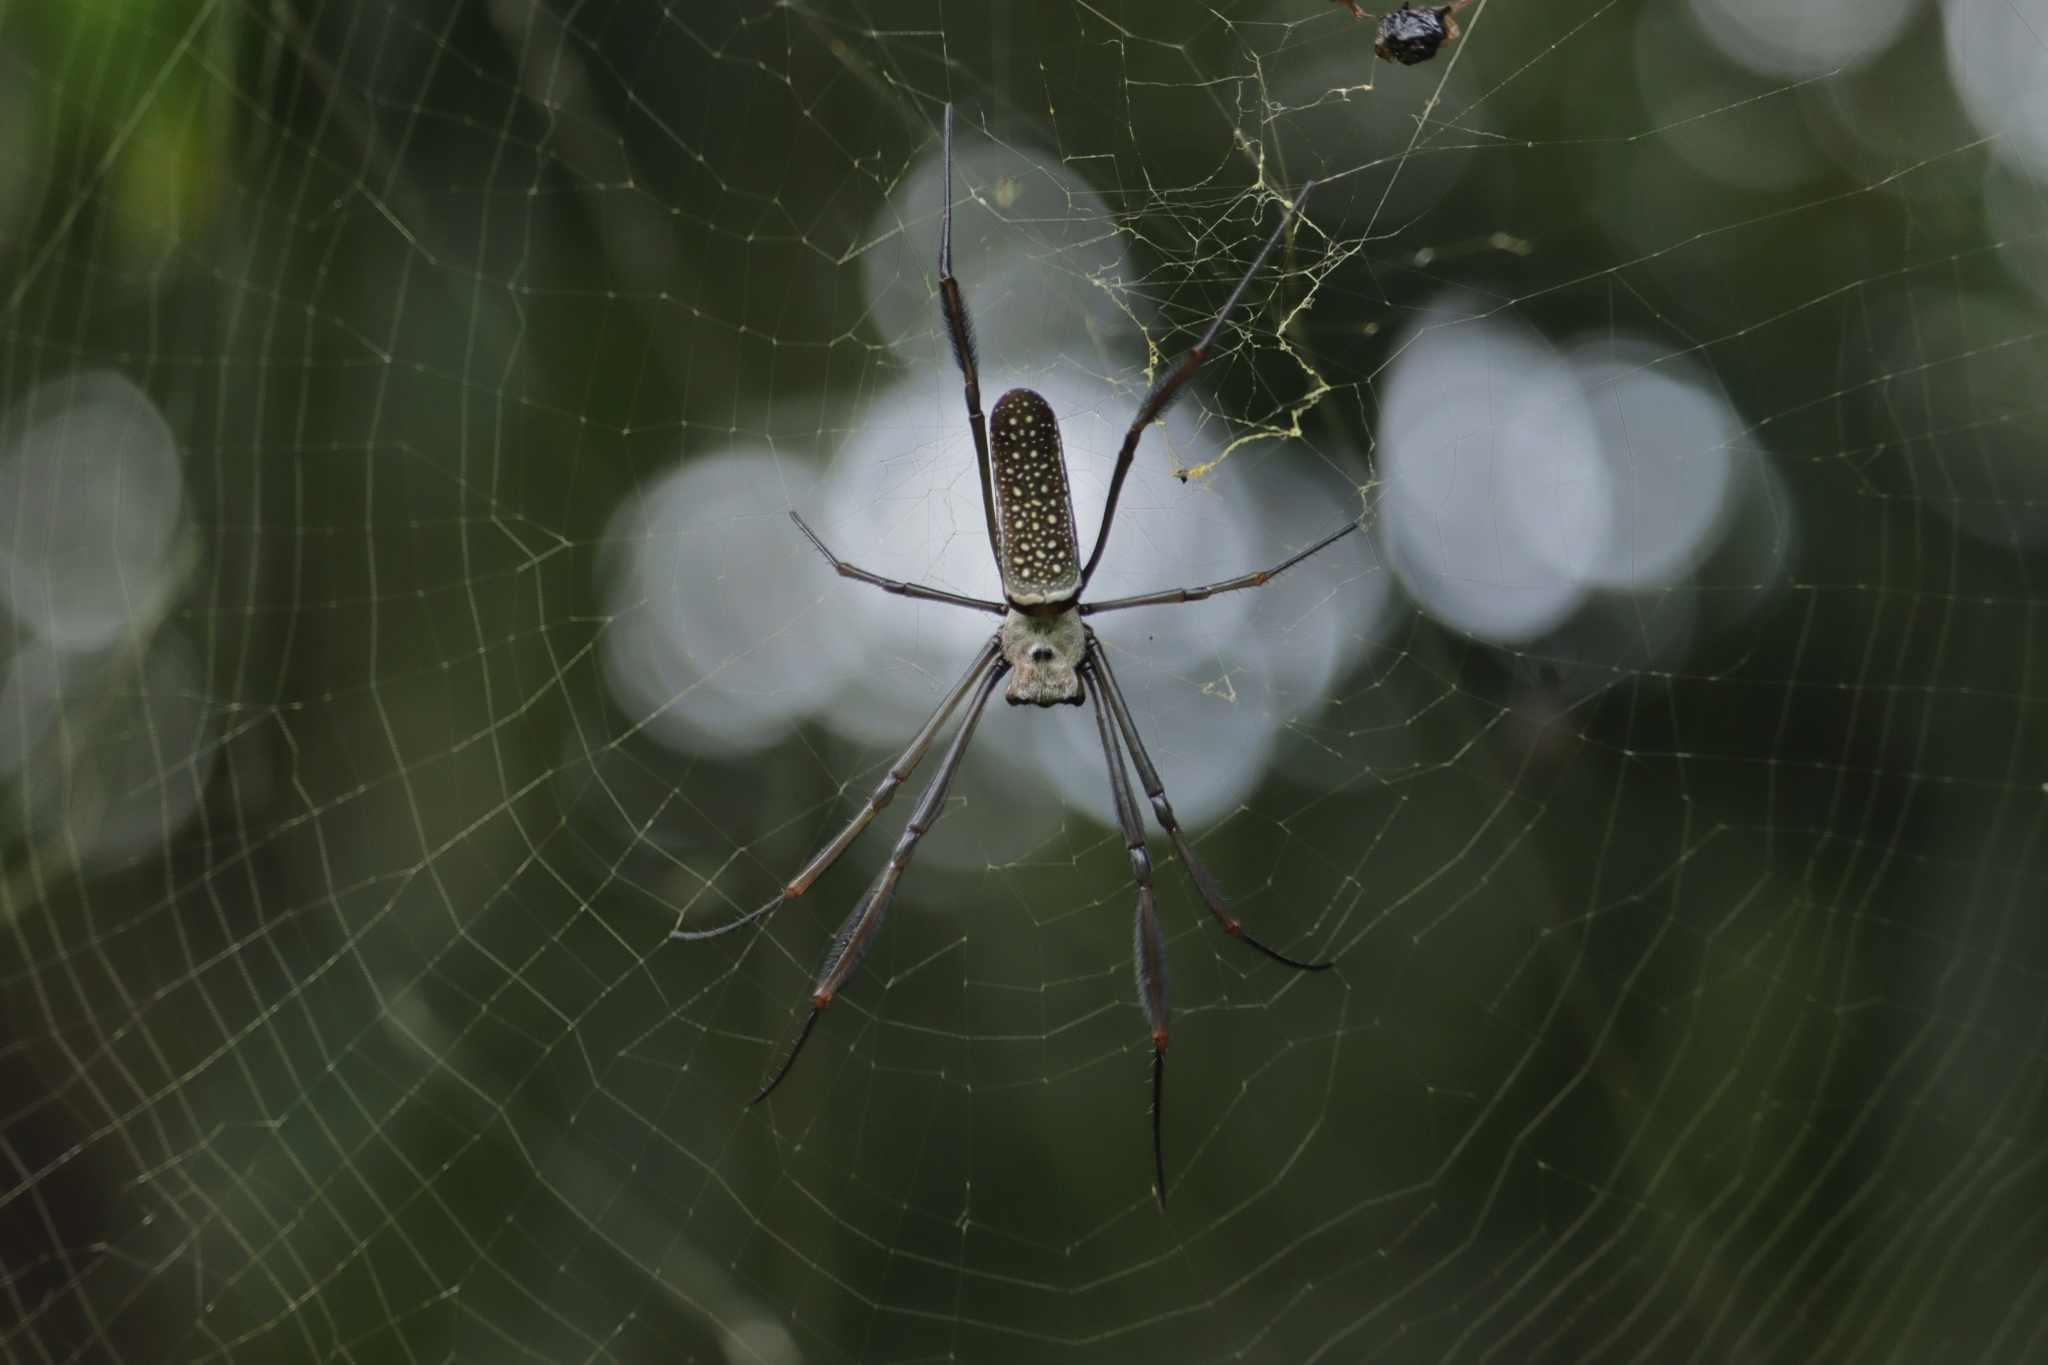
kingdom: Animalia
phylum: Arthropoda
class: Arachnida
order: Araneae
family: Araneidae
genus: Trichonephila
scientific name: Trichonephila clavipes
